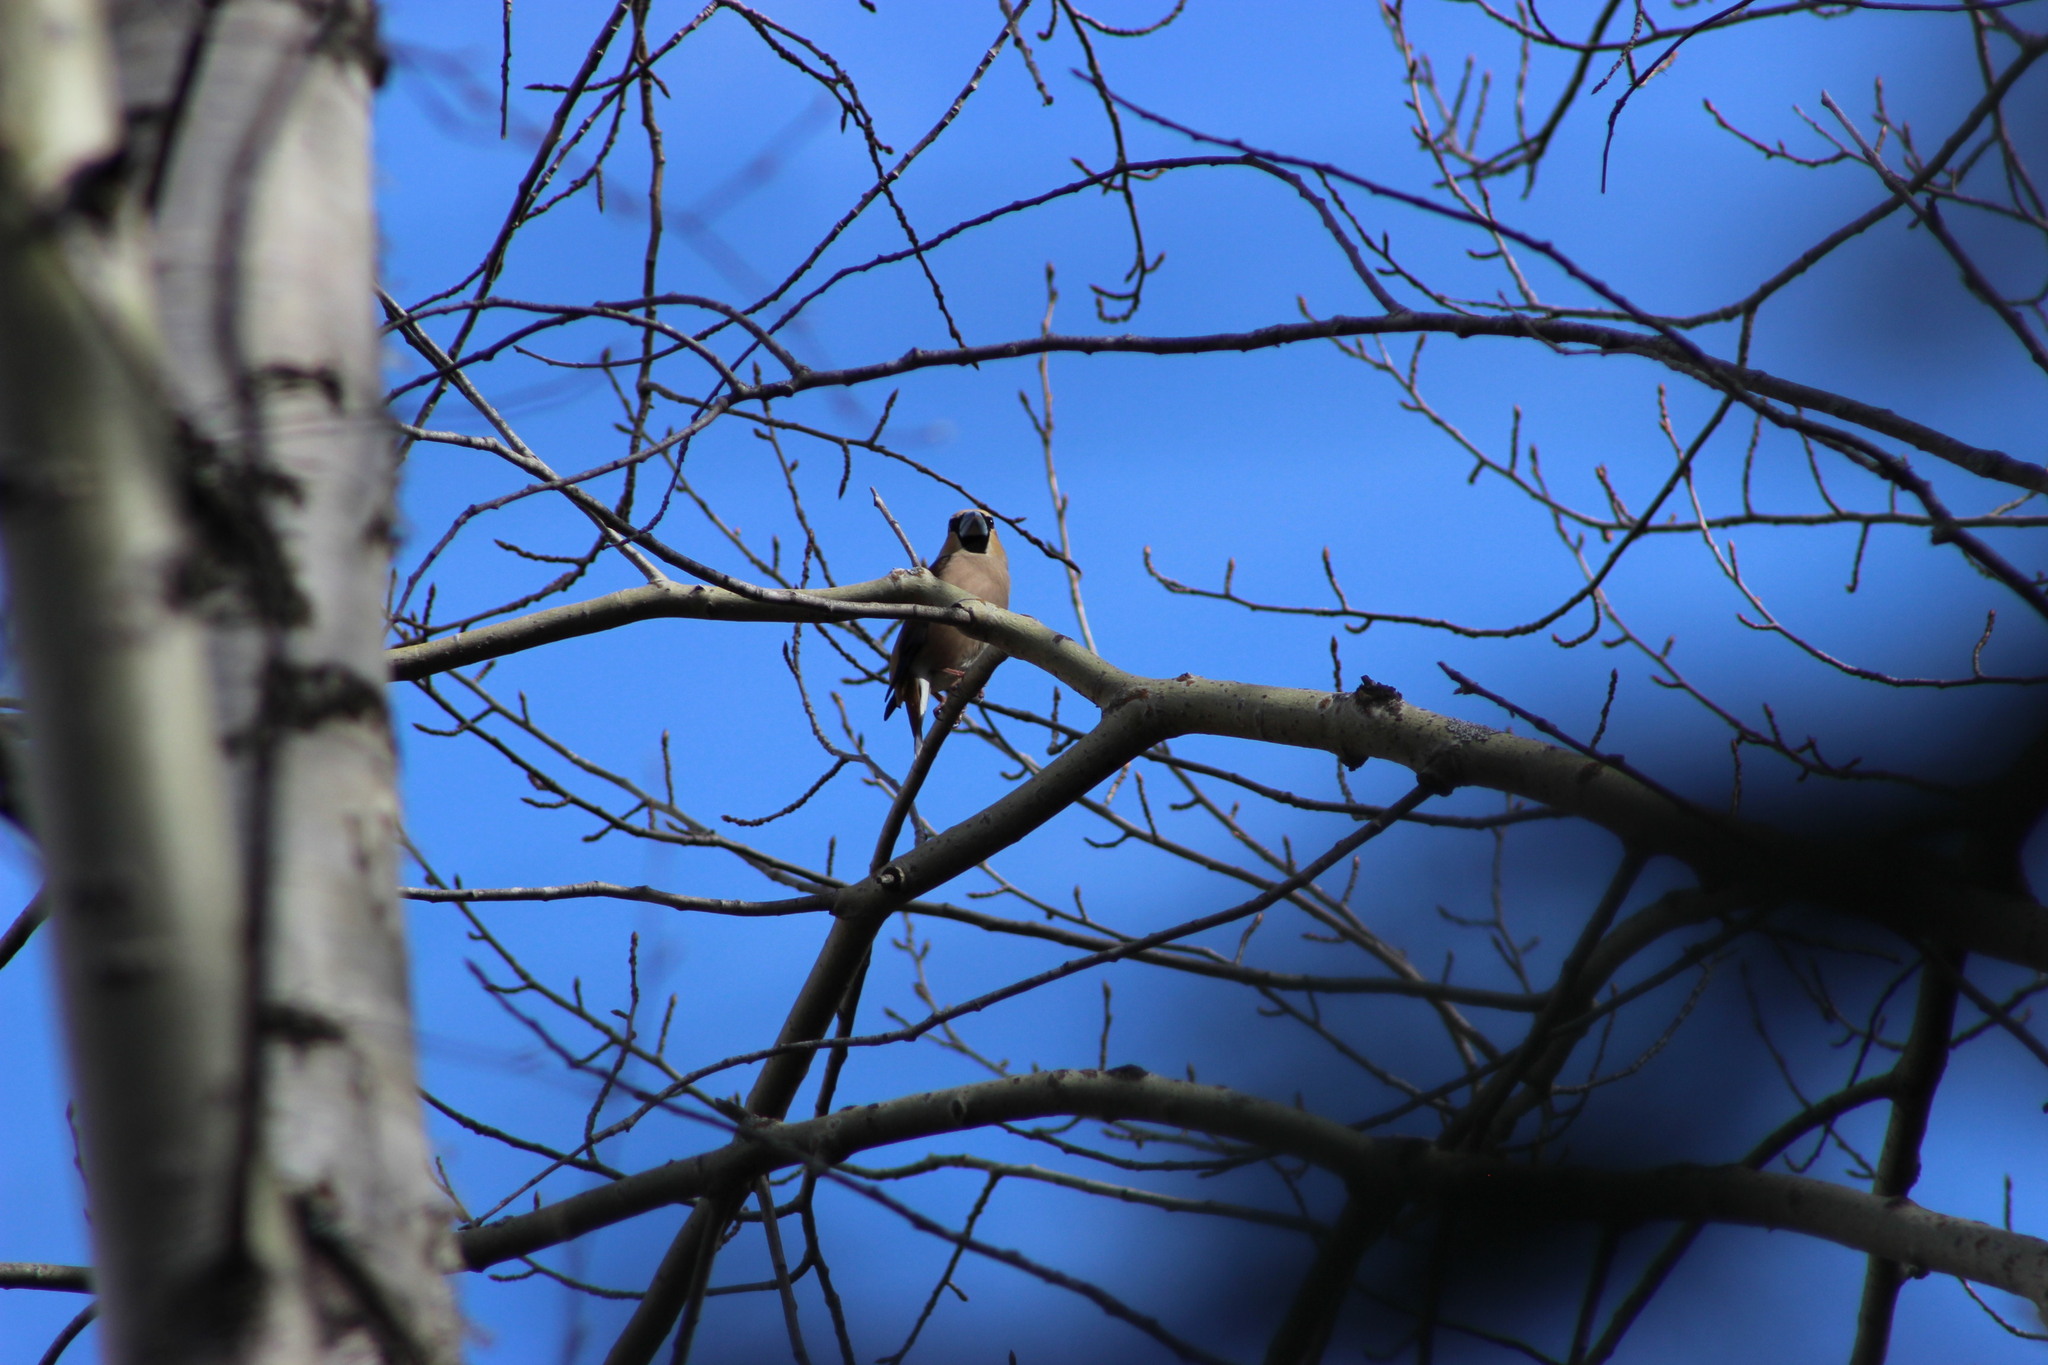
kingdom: Animalia
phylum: Chordata
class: Aves
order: Passeriformes
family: Fringillidae
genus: Coccothraustes
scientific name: Coccothraustes coccothraustes
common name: Hawfinch
